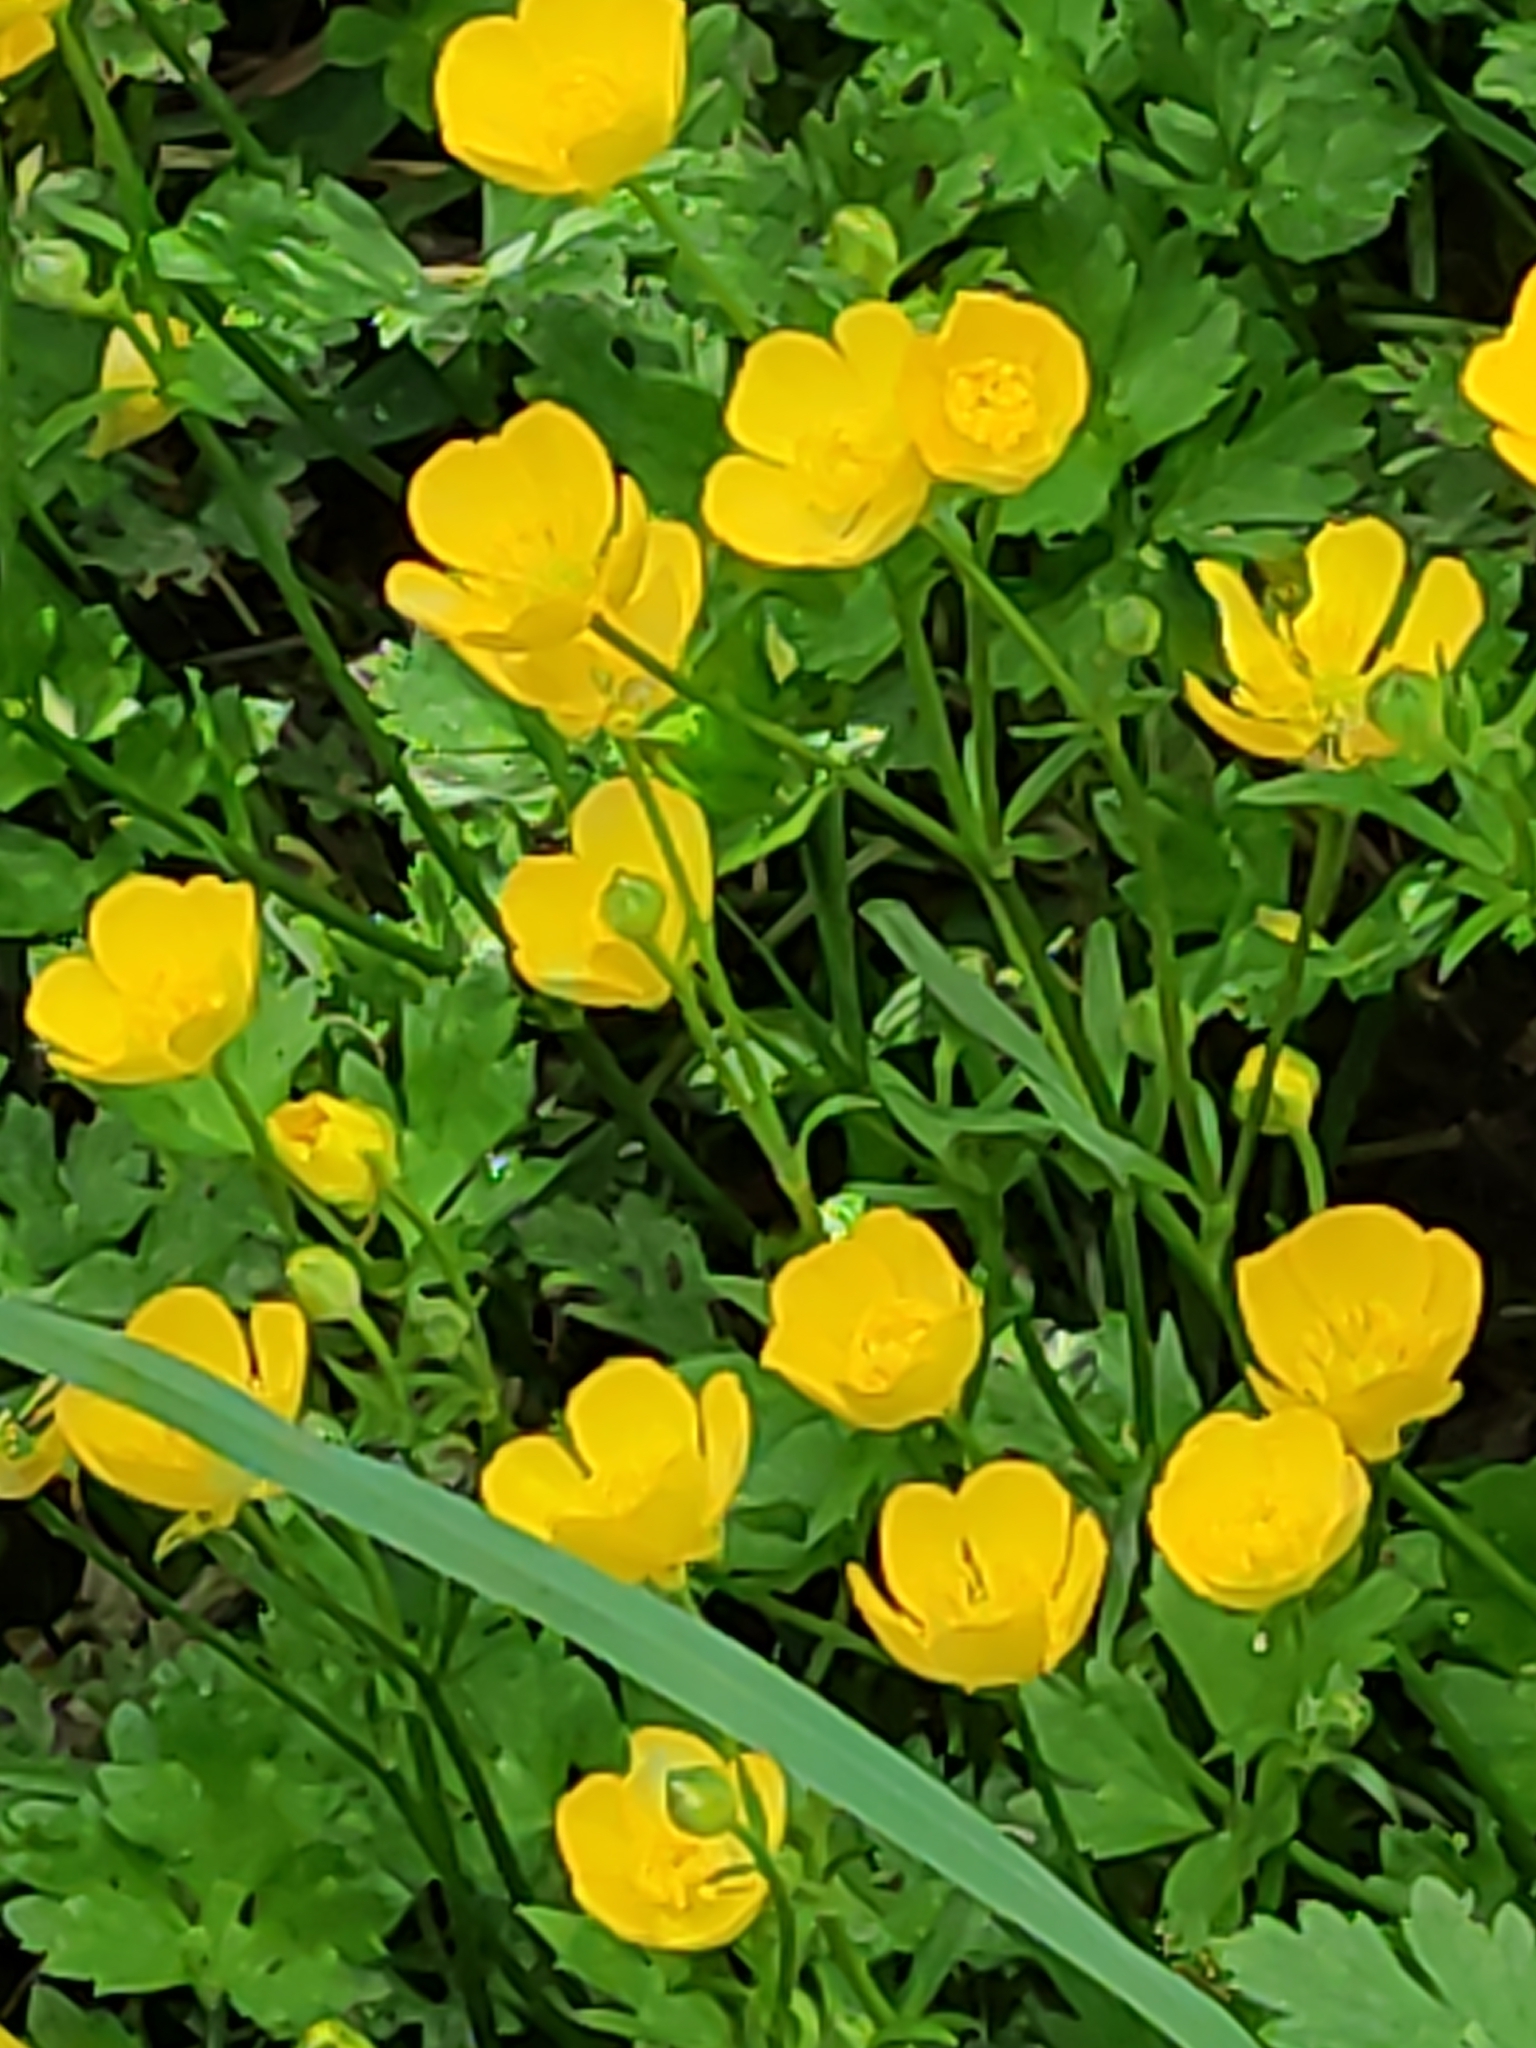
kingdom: Plantae
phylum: Tracheophyta
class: Magnoliopsida
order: Ranunculales
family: Ranunculaceae
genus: Ranunculus
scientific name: Ranunculus repens
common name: Creeping buttercup
